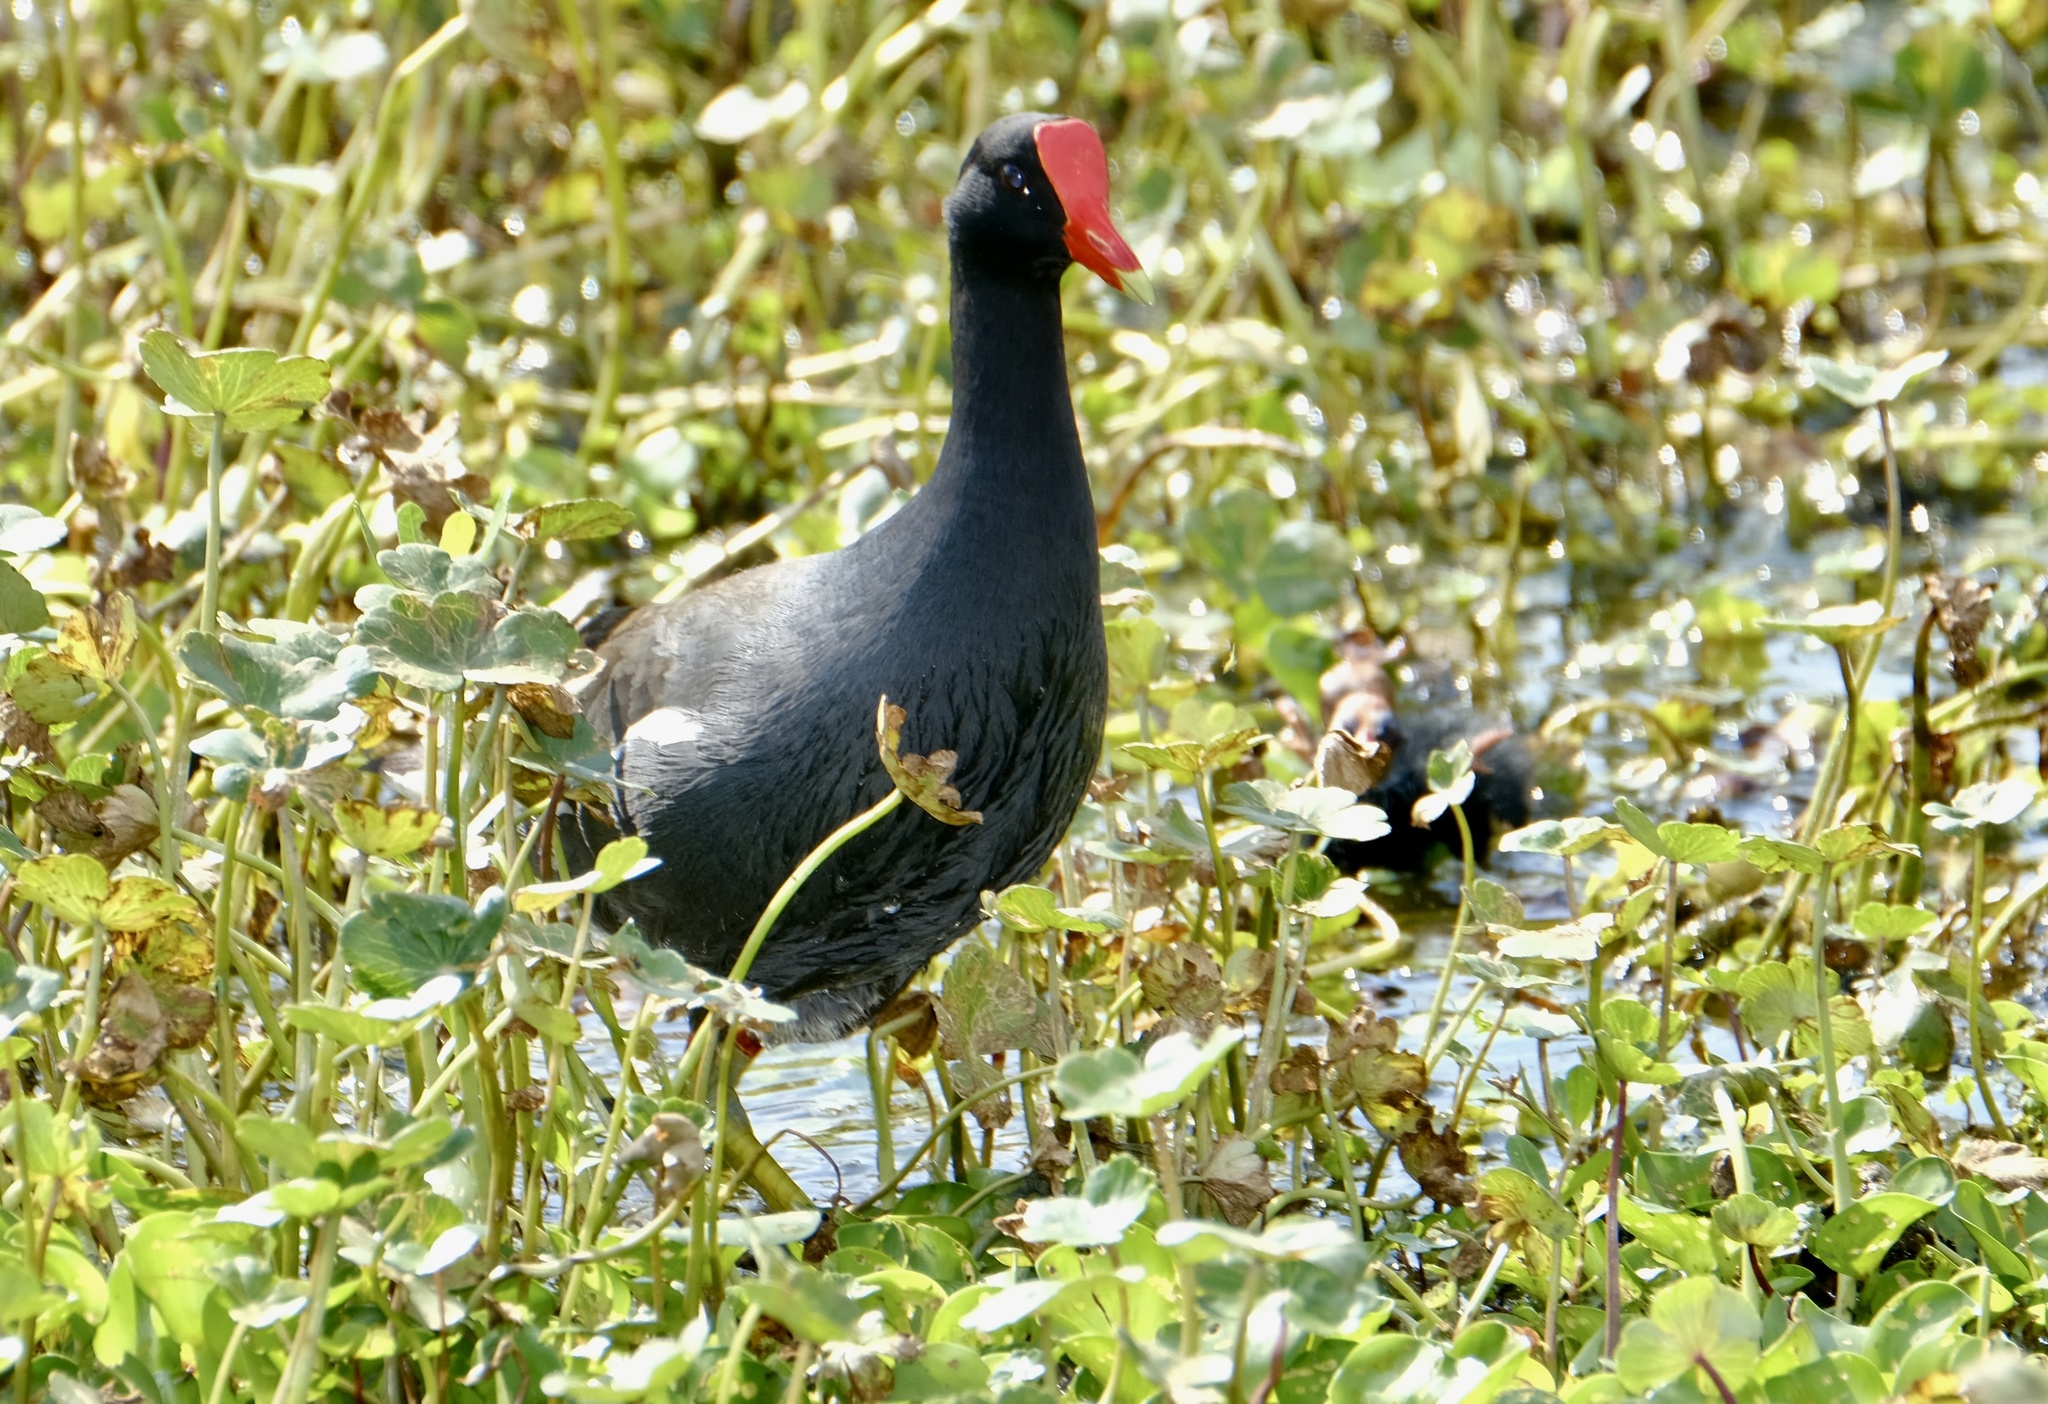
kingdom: Animalia
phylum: Chordata
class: Aves
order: Gruiformes
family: Rallidae
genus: Gallinula
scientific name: Gallinula chloropus
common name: Common moorhen
